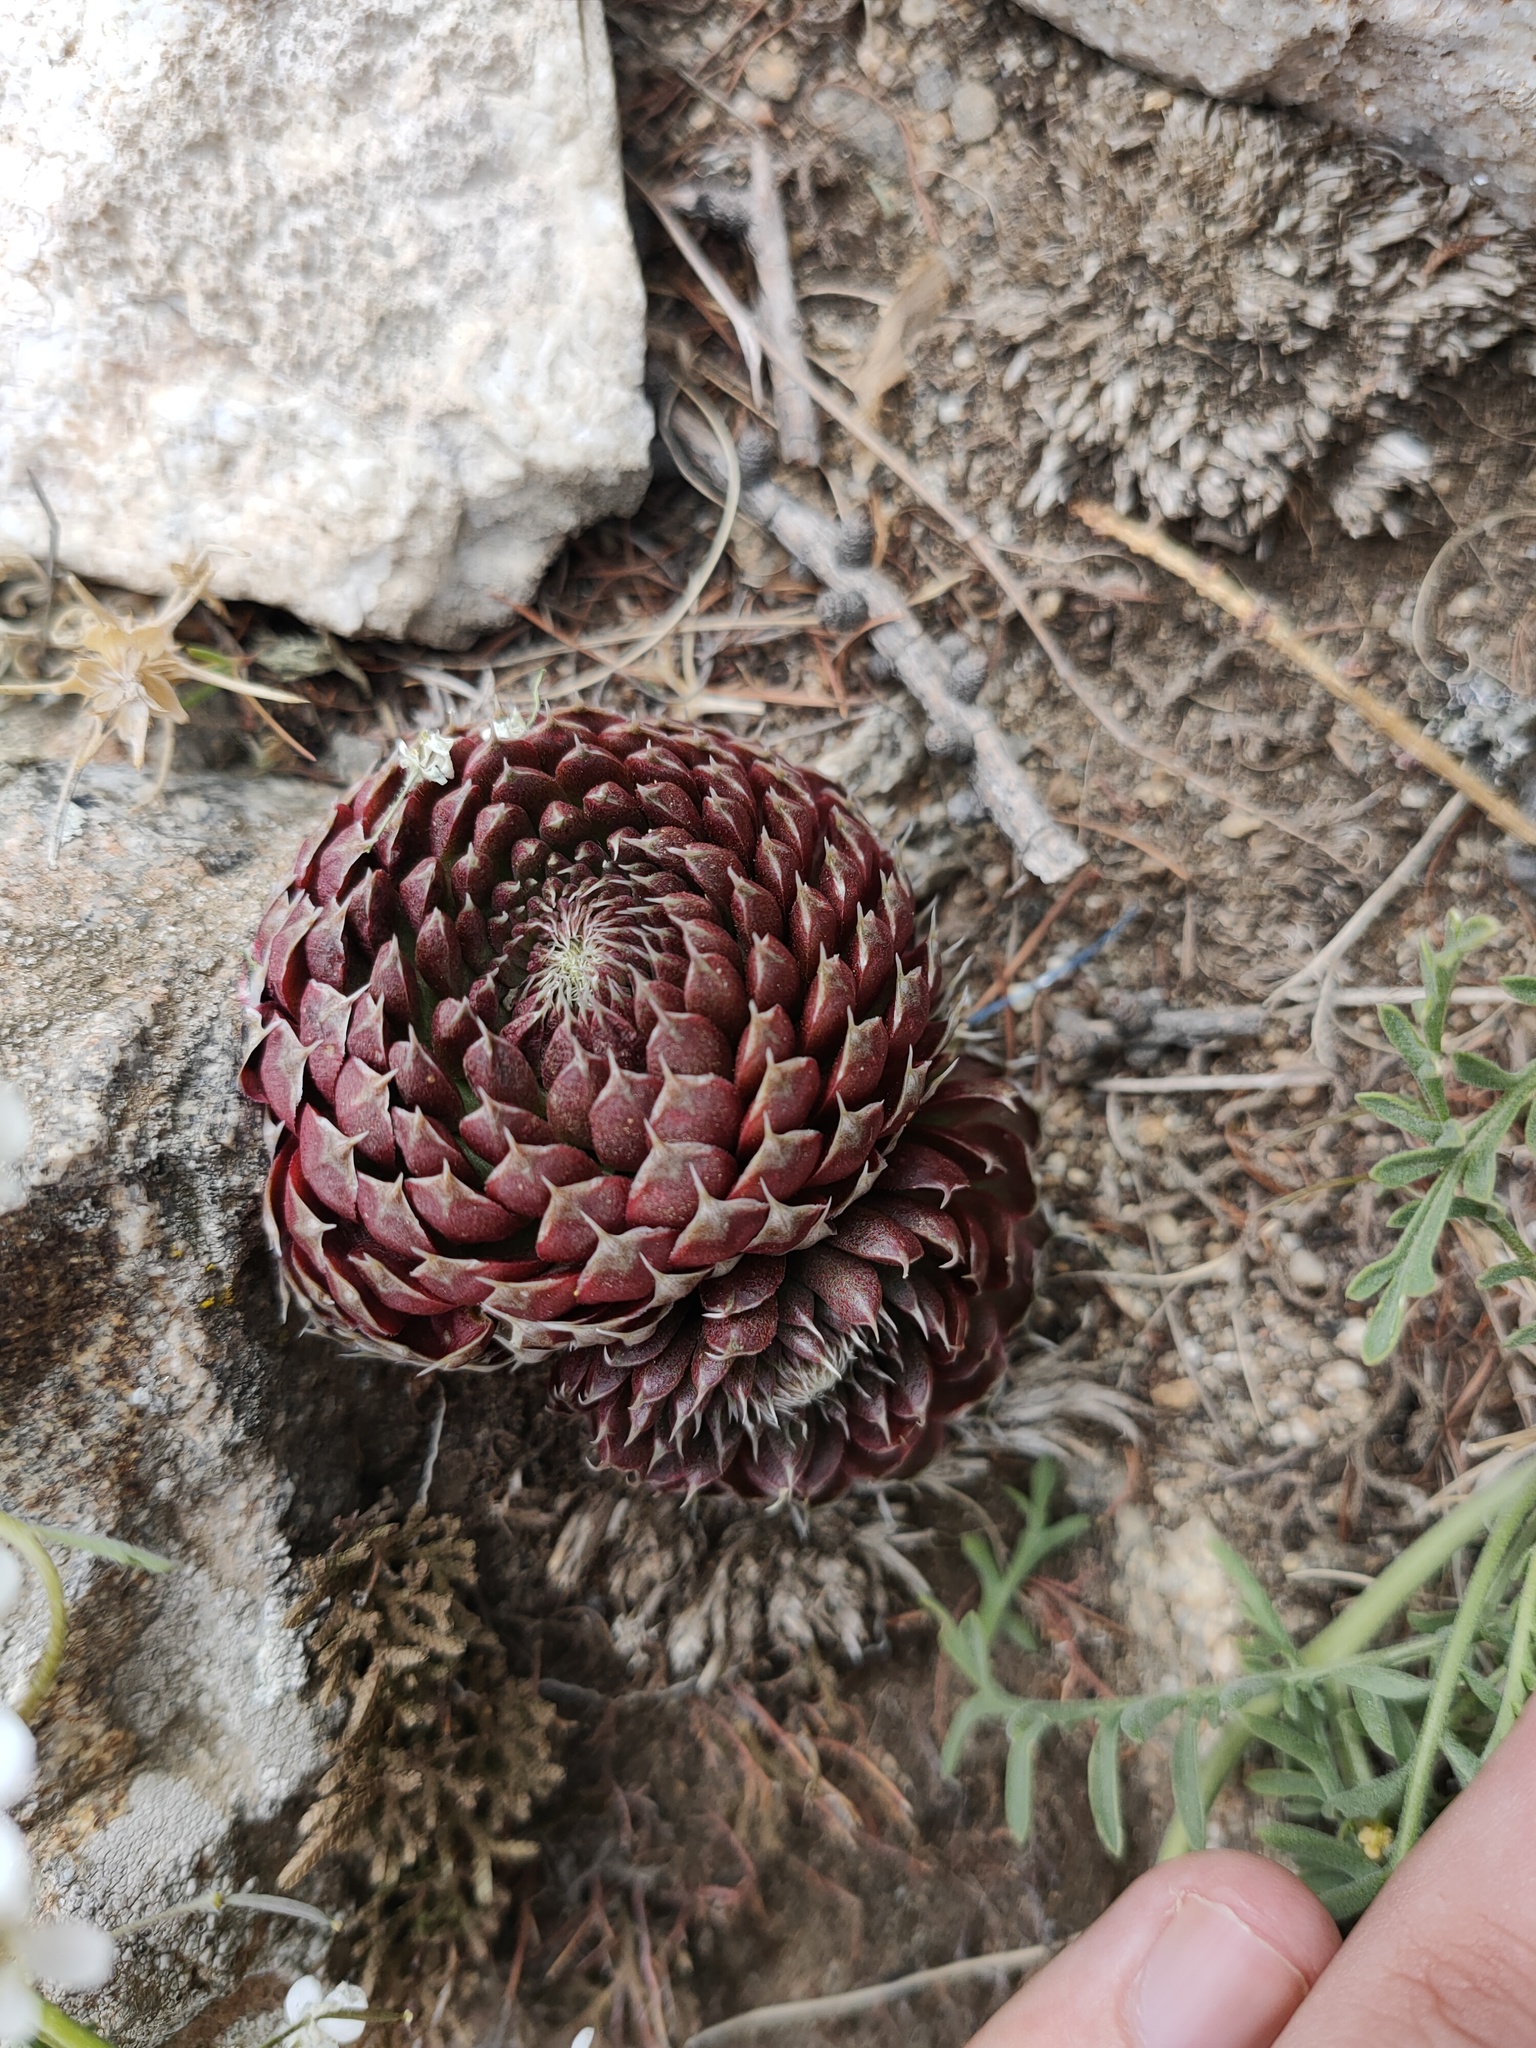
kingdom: Plantae
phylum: Tracheophyta
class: Magnoliopsida
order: Saxifragales
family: Crassulaceae
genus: Orostachys
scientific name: Orostachys spinosa
